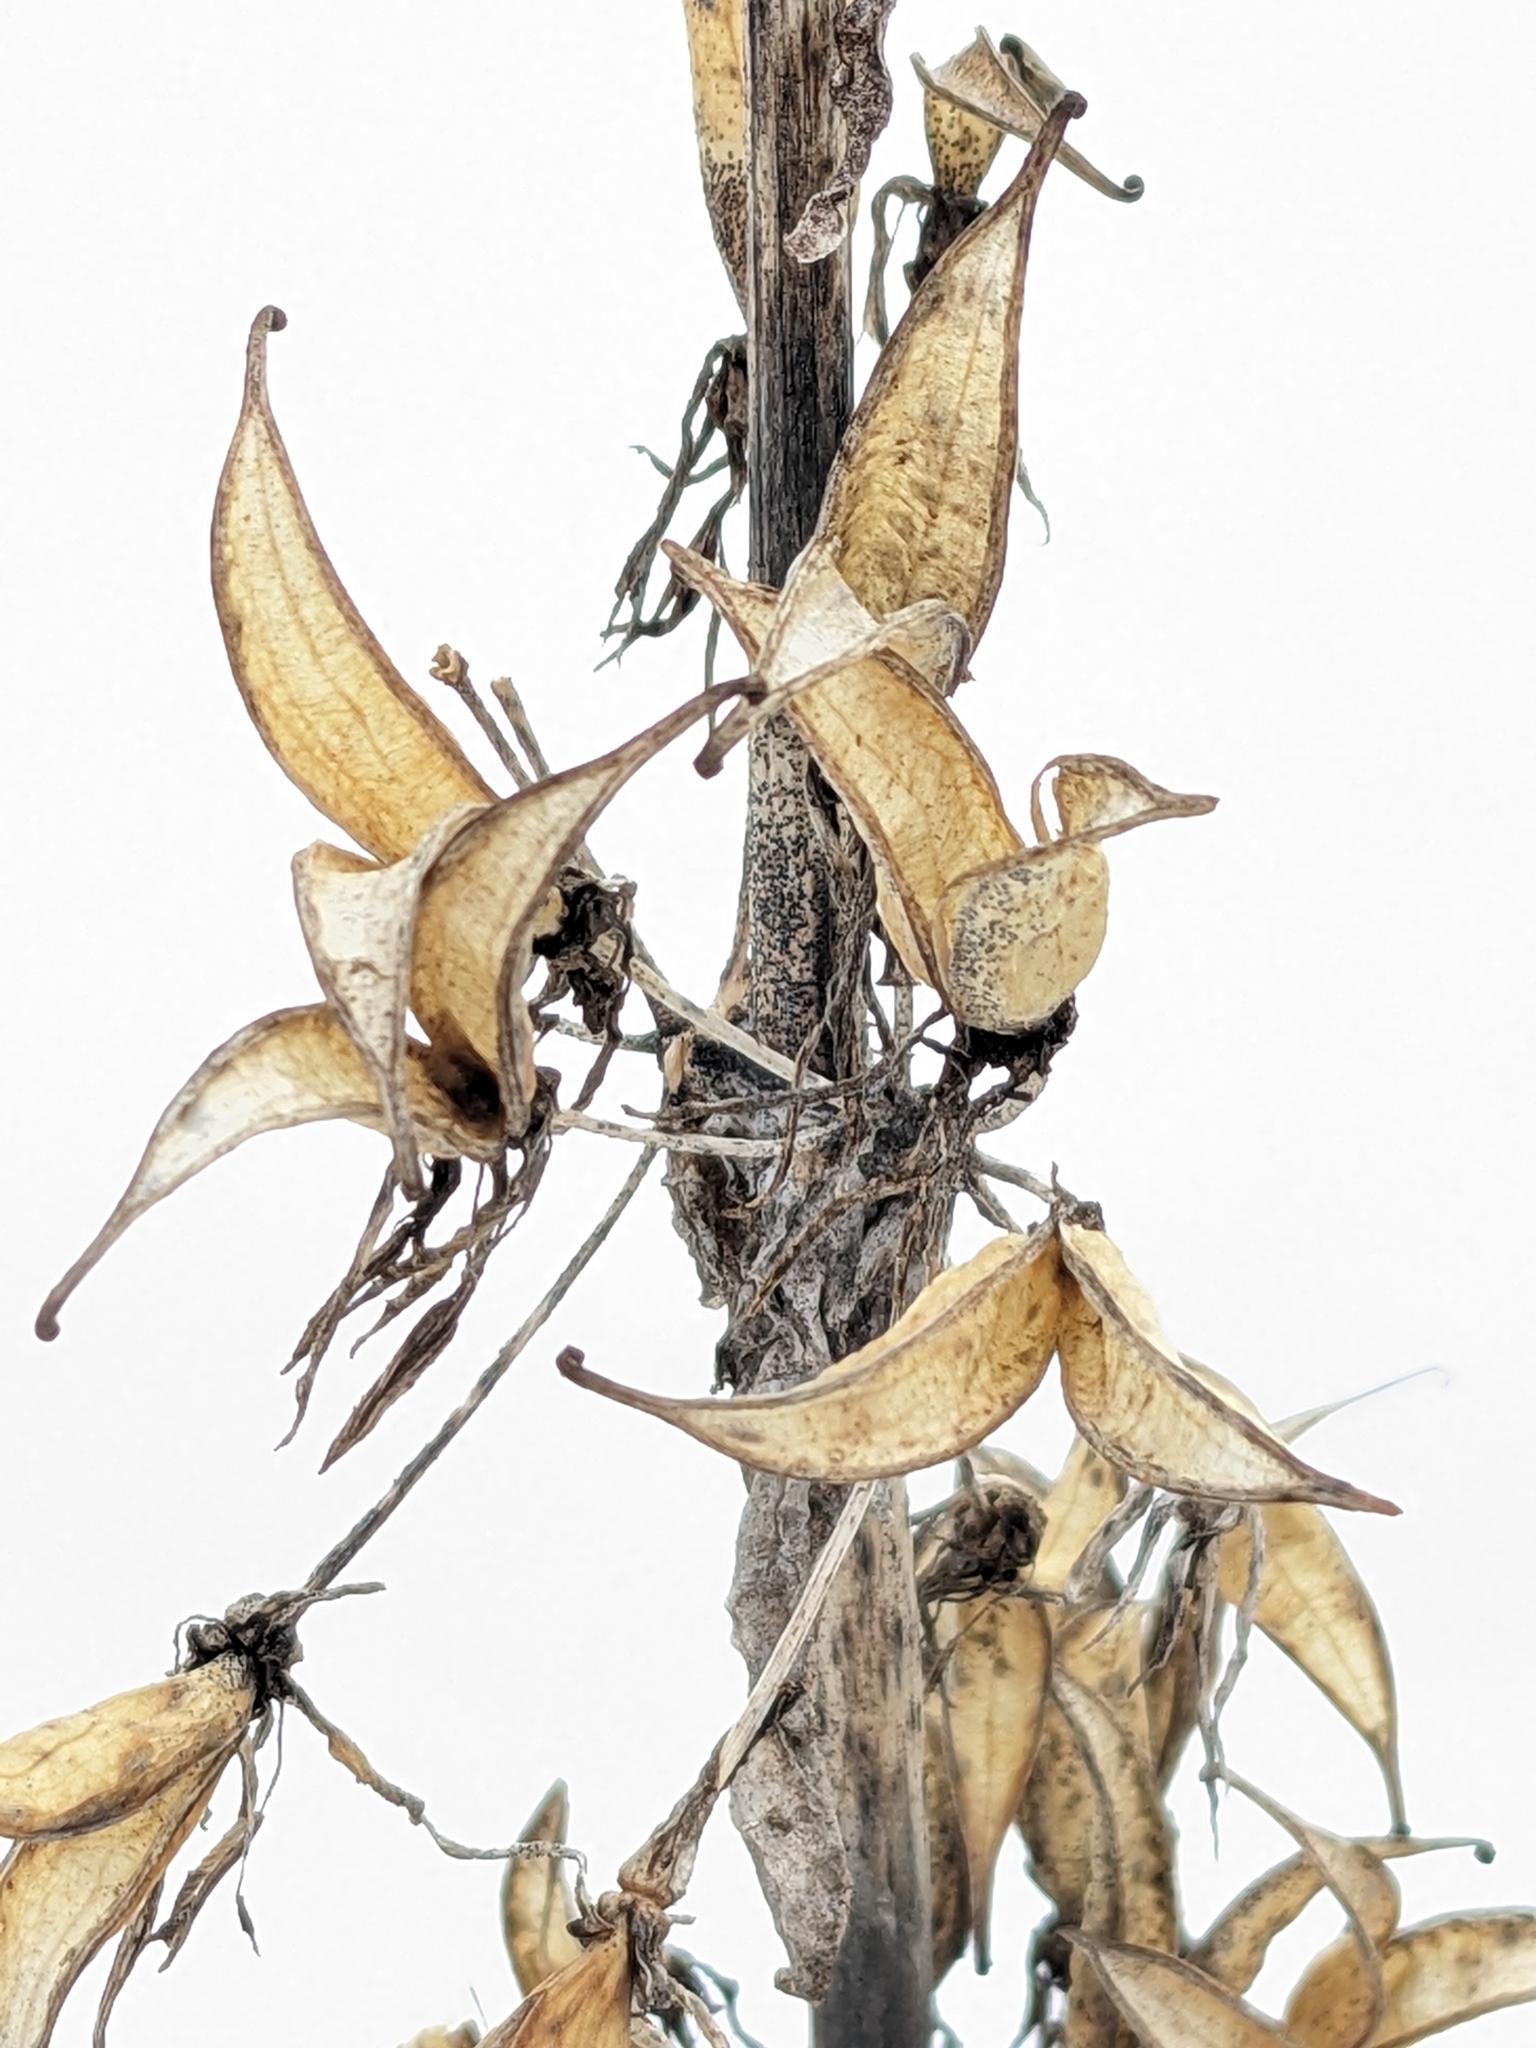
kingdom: Plantae
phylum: Tracheophyta
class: Magnoliopsida
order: Gentianales
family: Gentianaceae
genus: Gentiana
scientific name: Gentiana lutea
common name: Great yellow gentian
